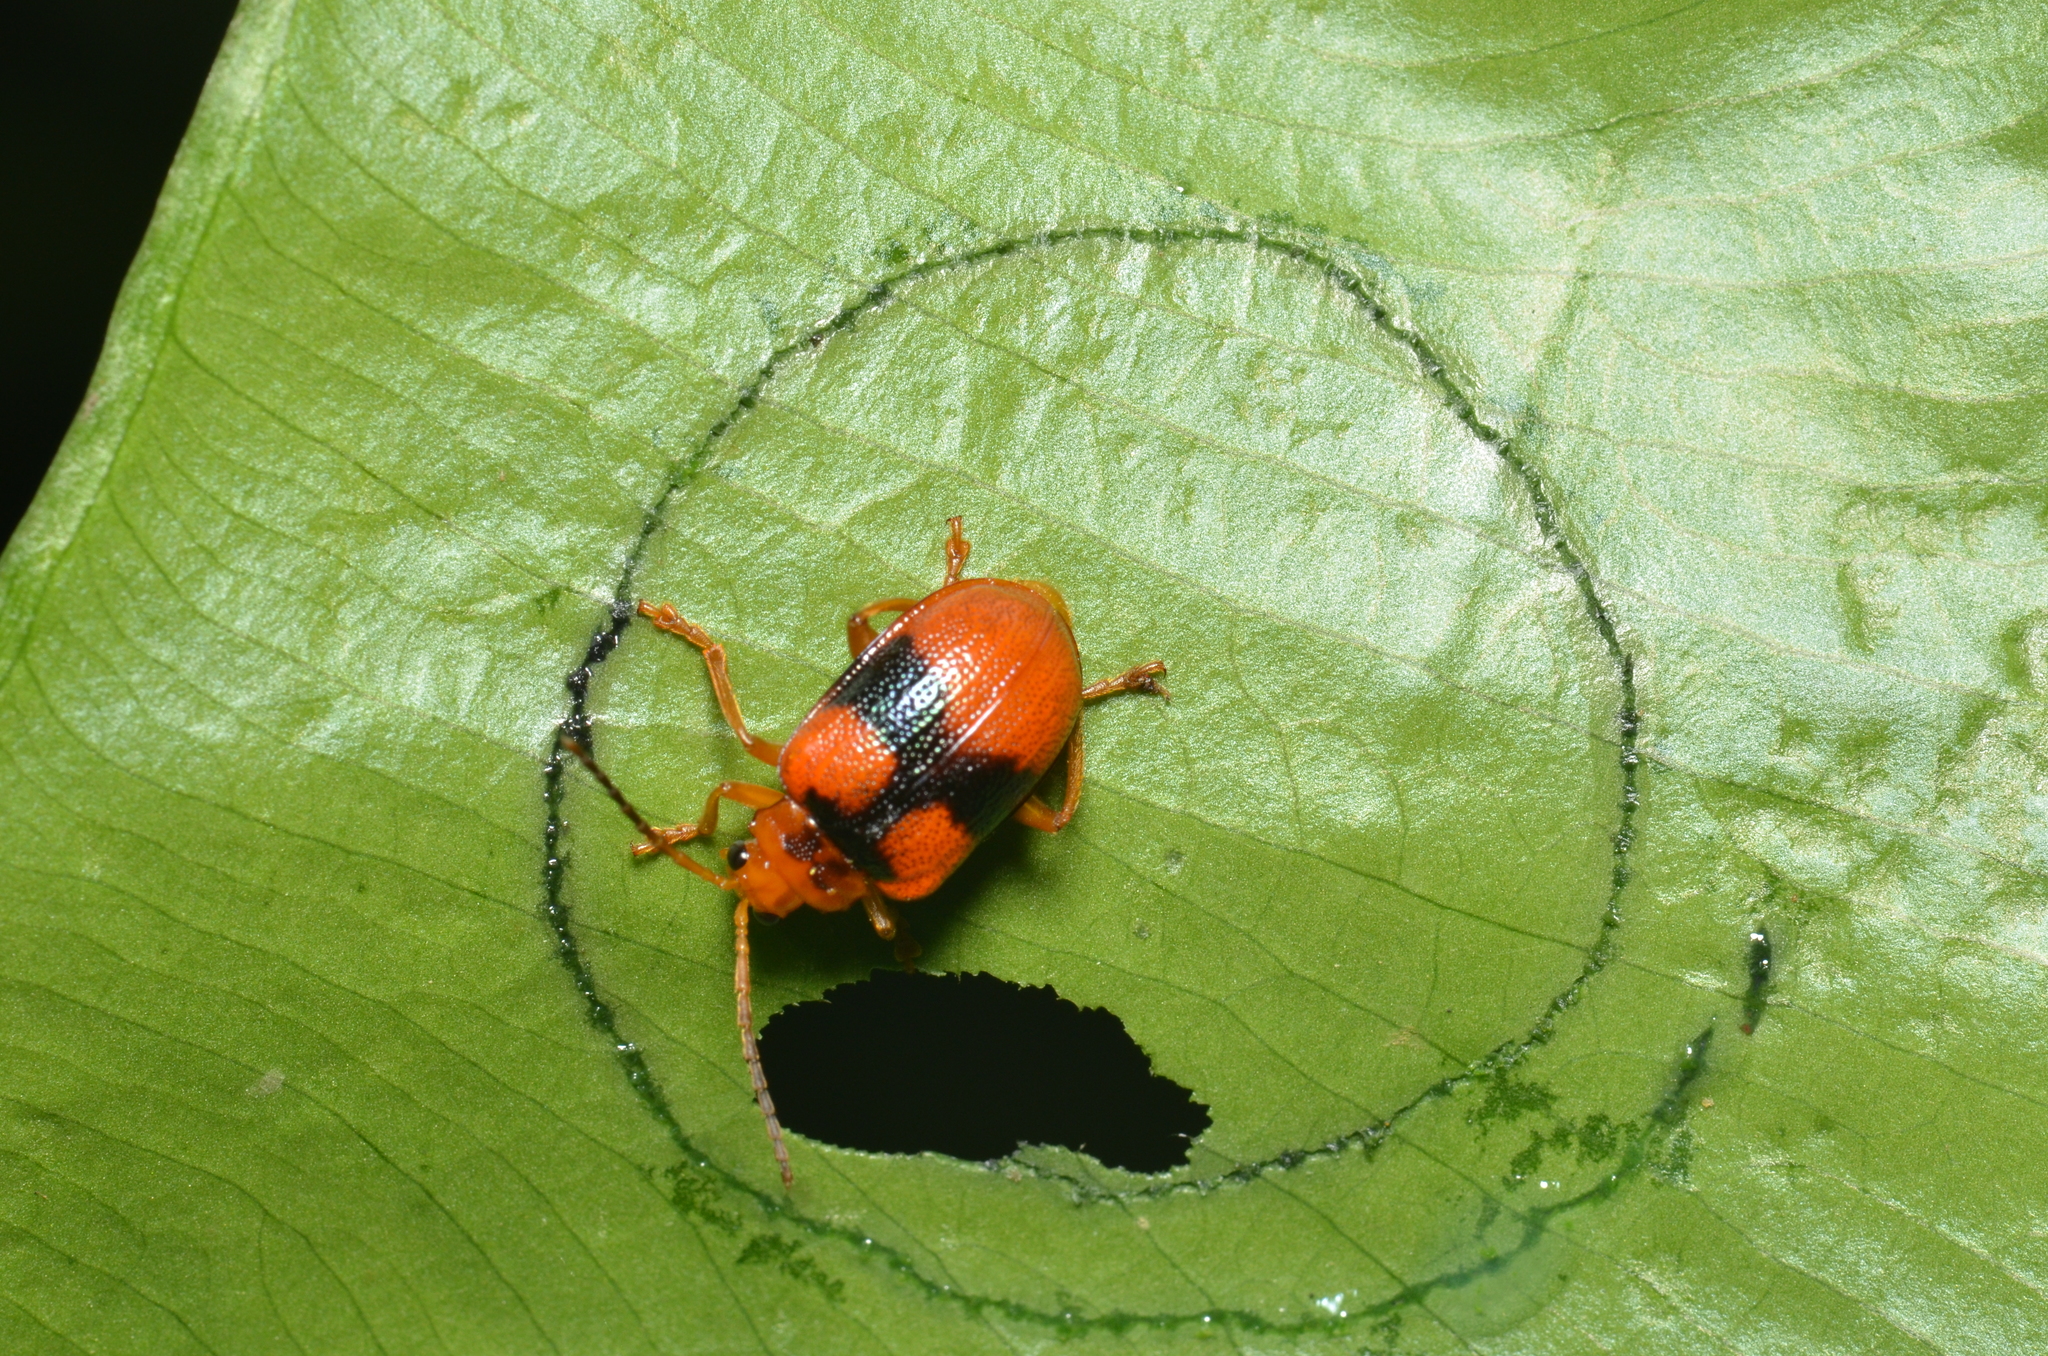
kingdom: Animalia
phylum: Arthropoda
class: Insecta
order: Coleoptera
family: Chrysomelidae
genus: Aplosonyx
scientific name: Aplosonyx ancora
